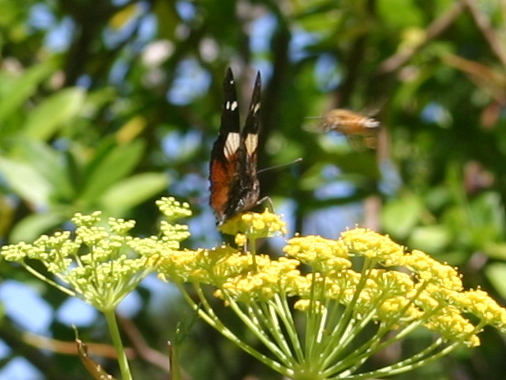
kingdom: Animalia
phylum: Arthropoda
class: Insecta
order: Lepidoptera
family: Nymphalidae
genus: Vanessa
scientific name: Vanessa itea
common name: Yellow admiral
